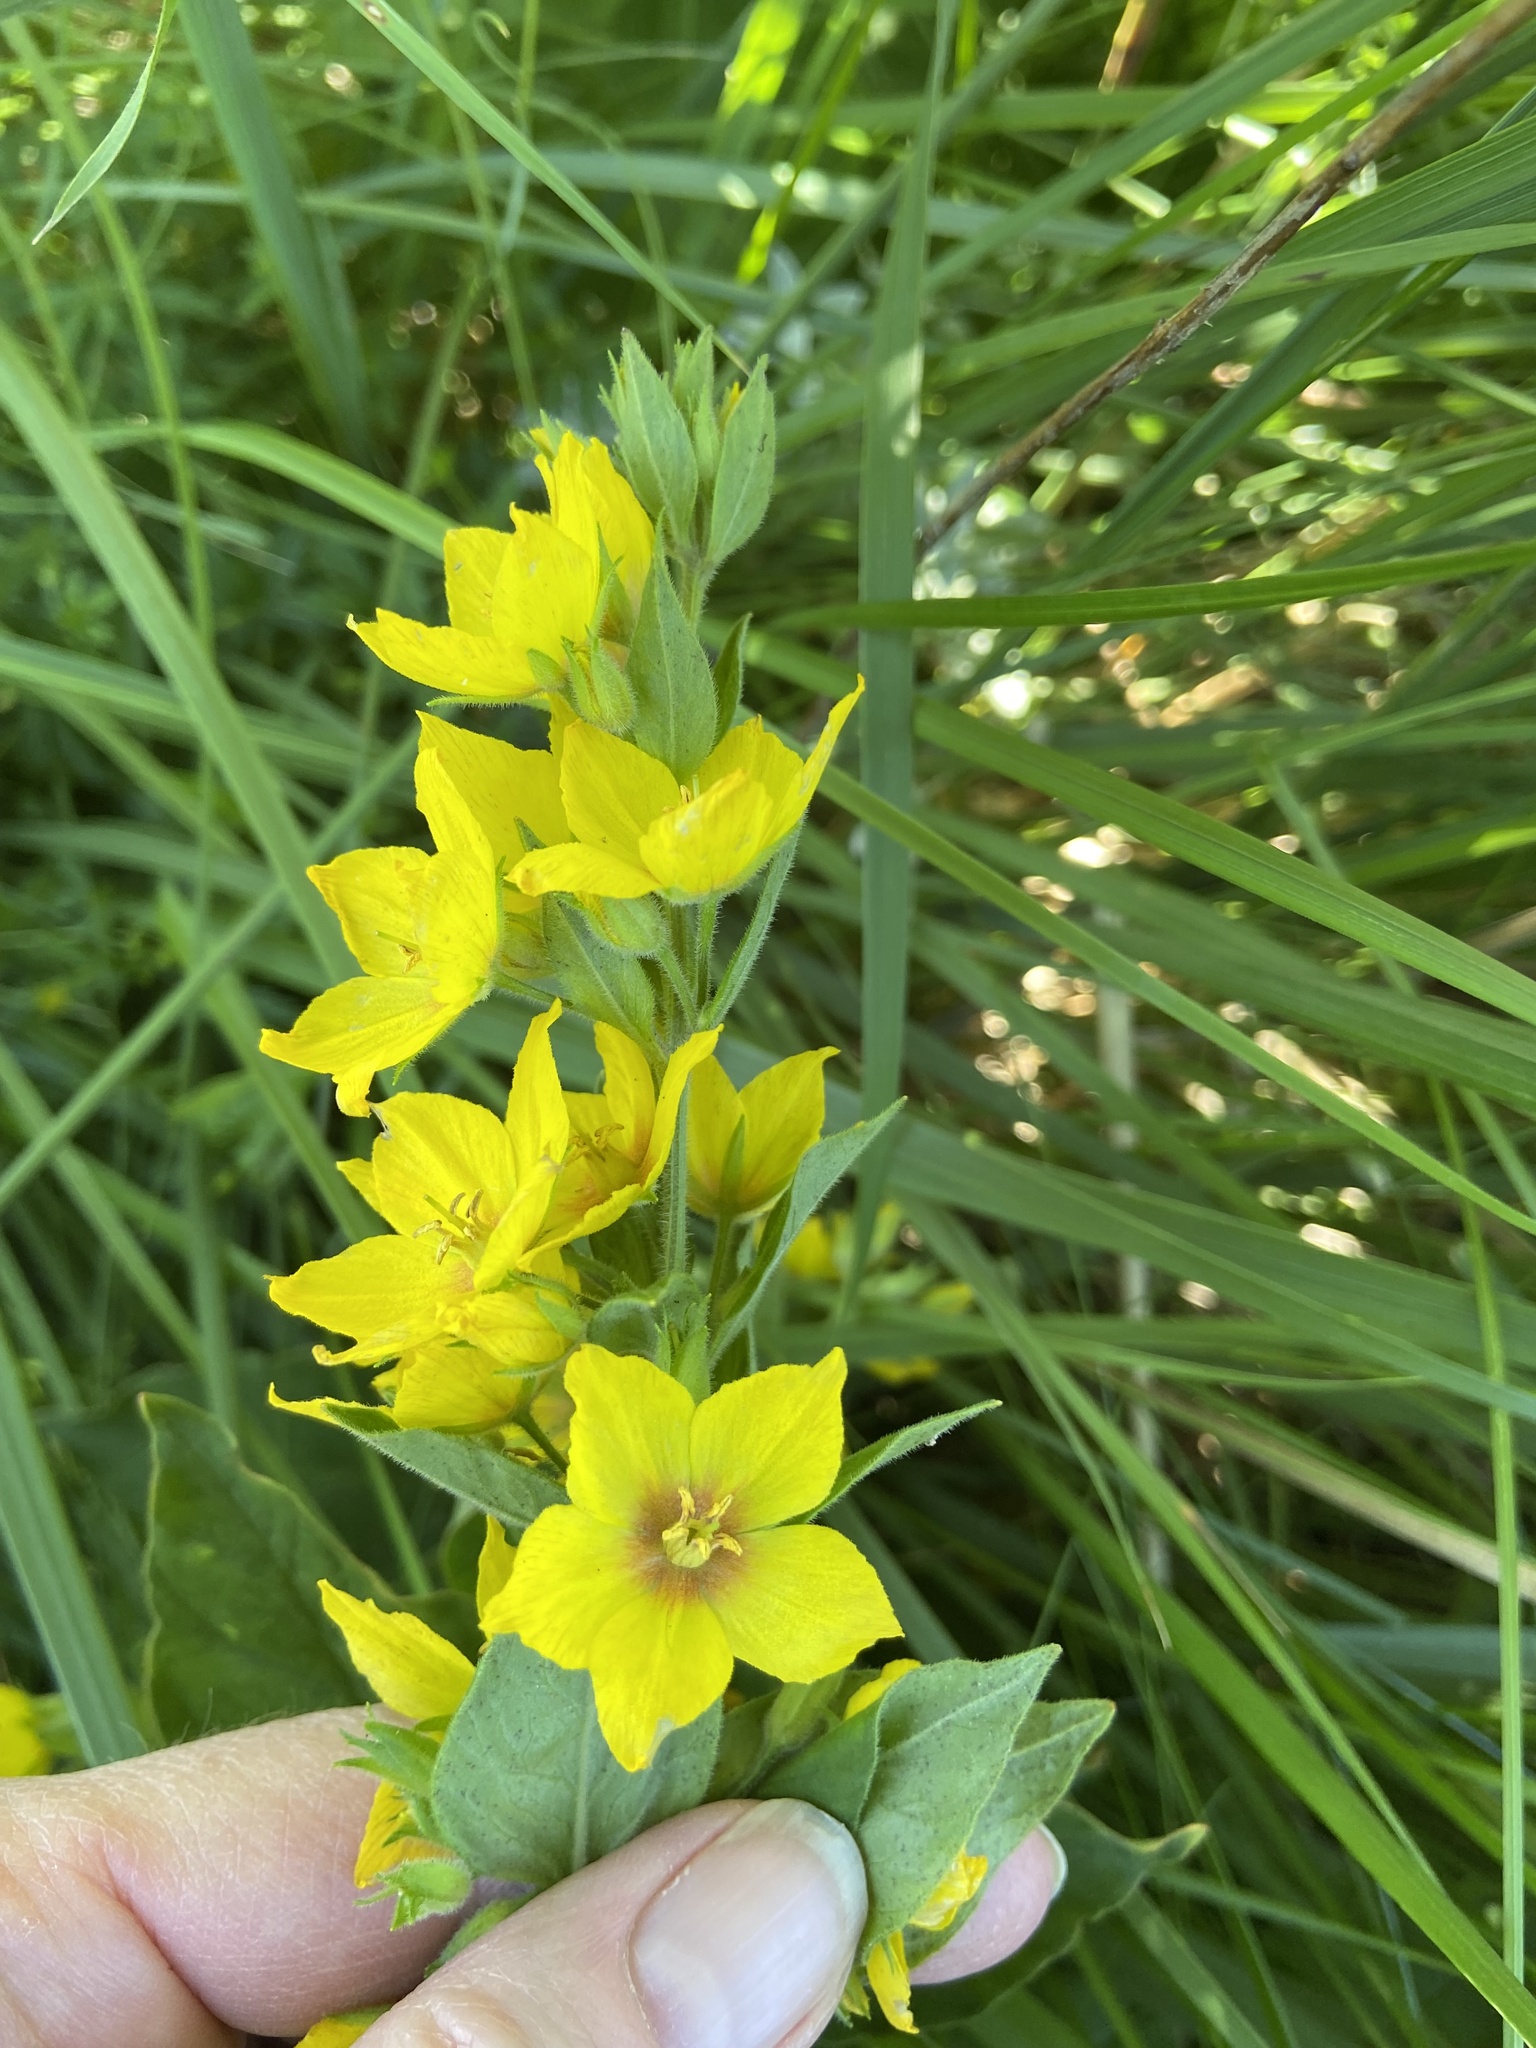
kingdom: Plantae
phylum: Tracheophyta
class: Magnoliopsida
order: Ericales
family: Primulaceae
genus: Lysimachia
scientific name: Lysimachia punctata
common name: Dotted loosestrife
